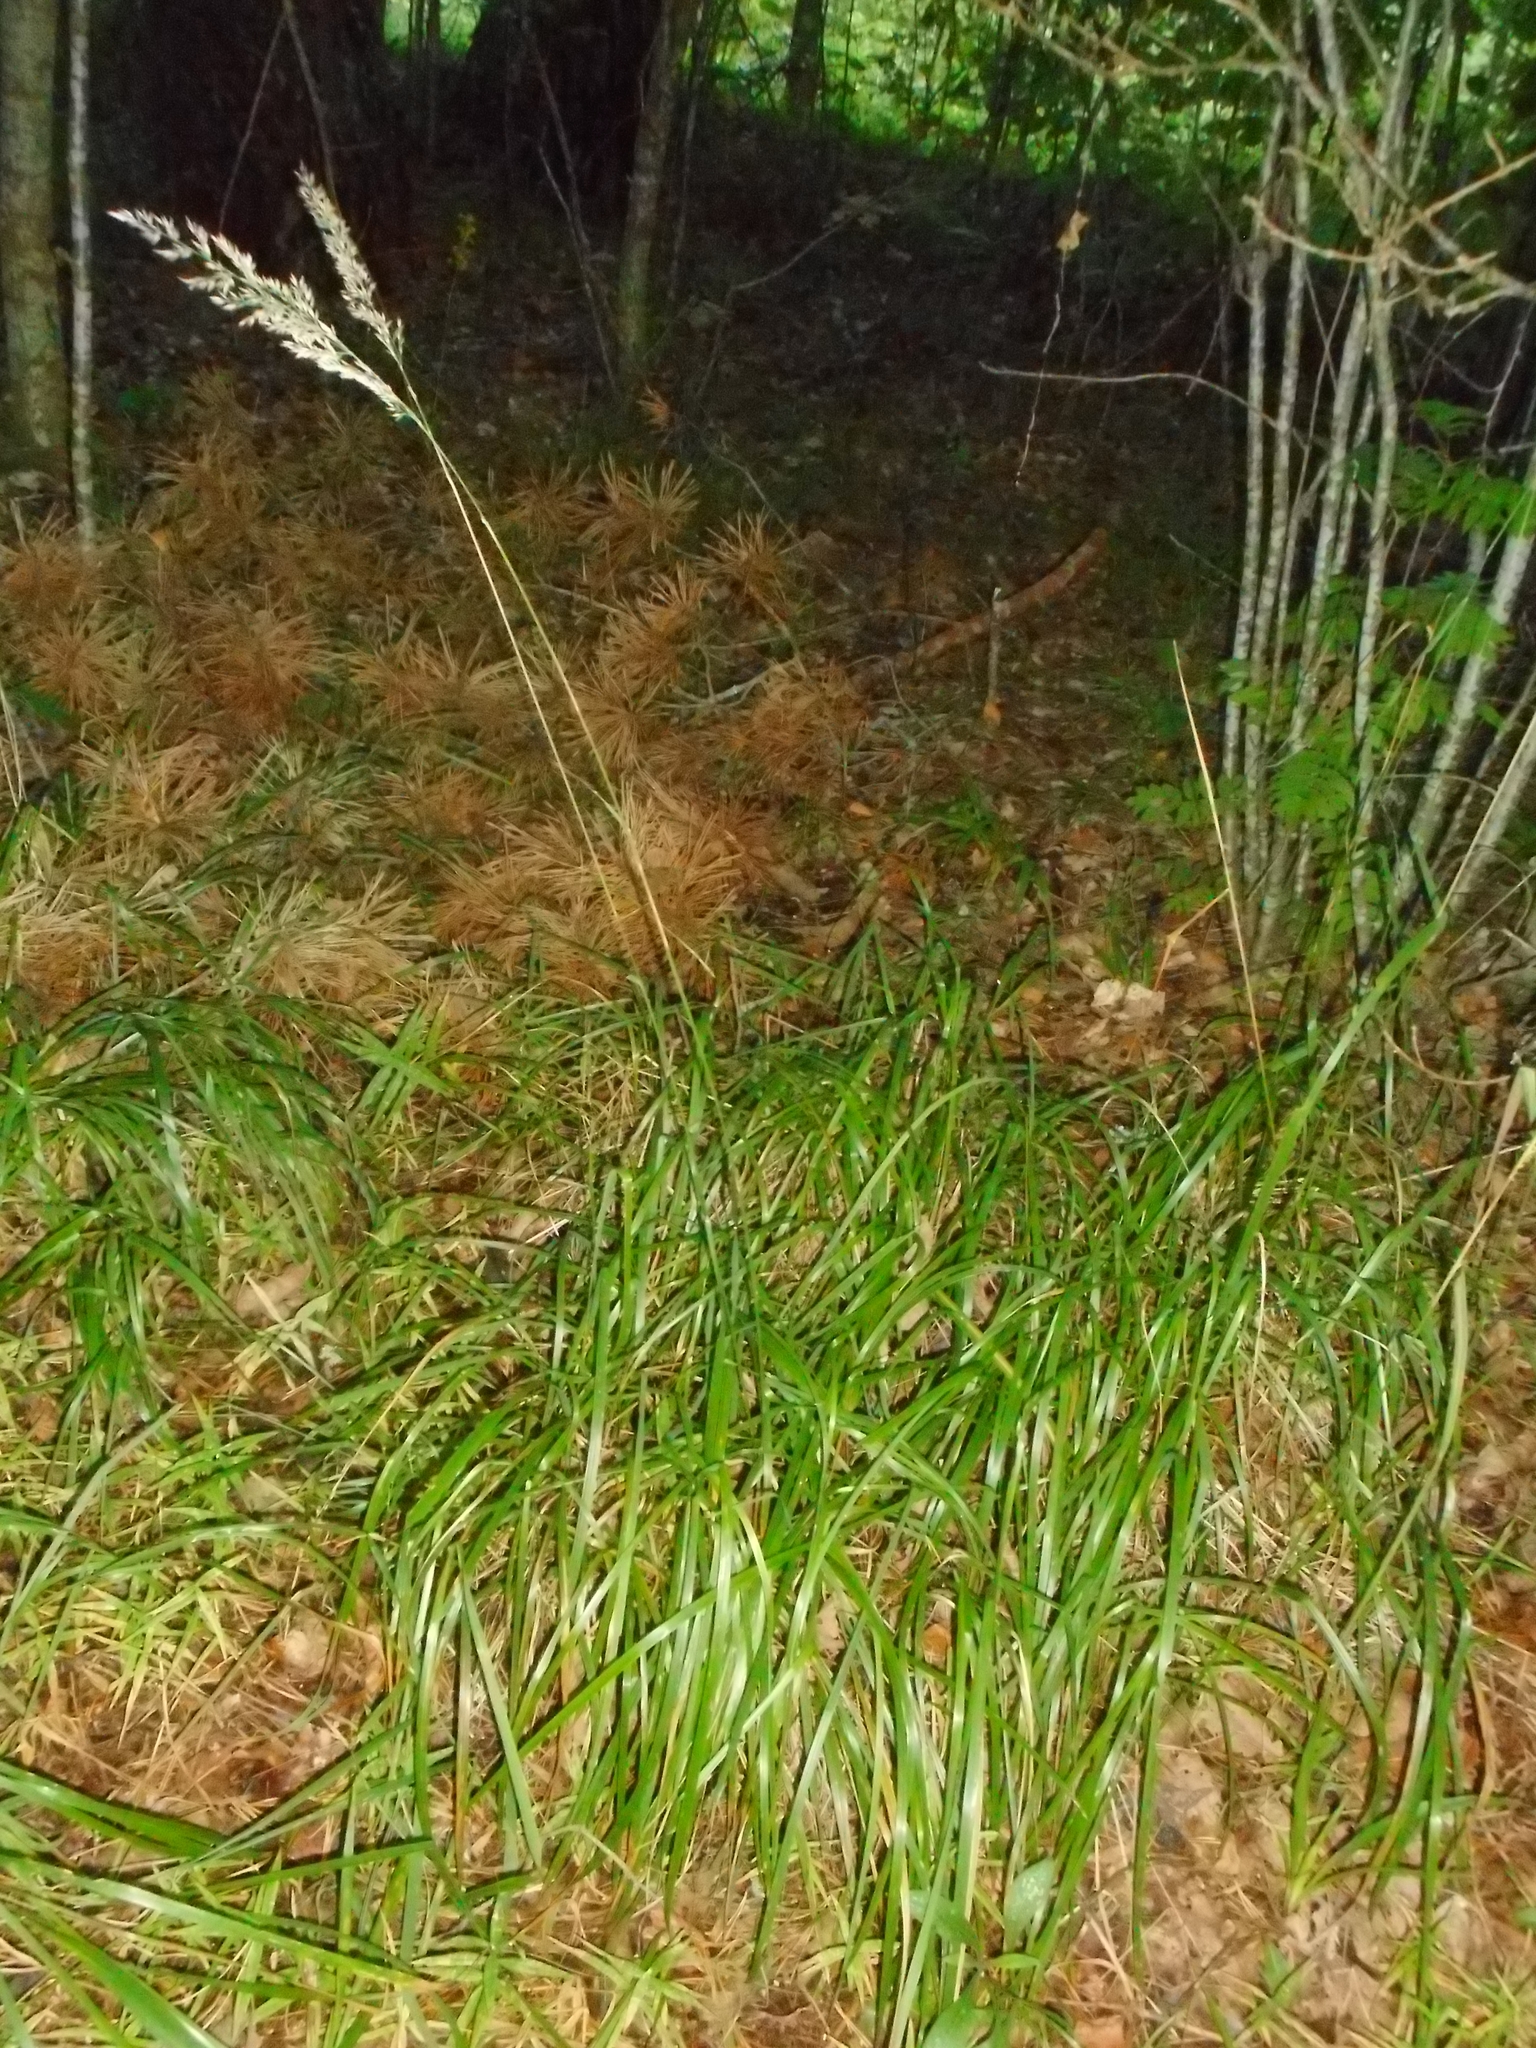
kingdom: Plantae
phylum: Tracheophyta
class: Liliopsida
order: Poales
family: Poaceae
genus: Calamagrostis
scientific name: Calamagrostis arundinacea
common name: Metskastik
